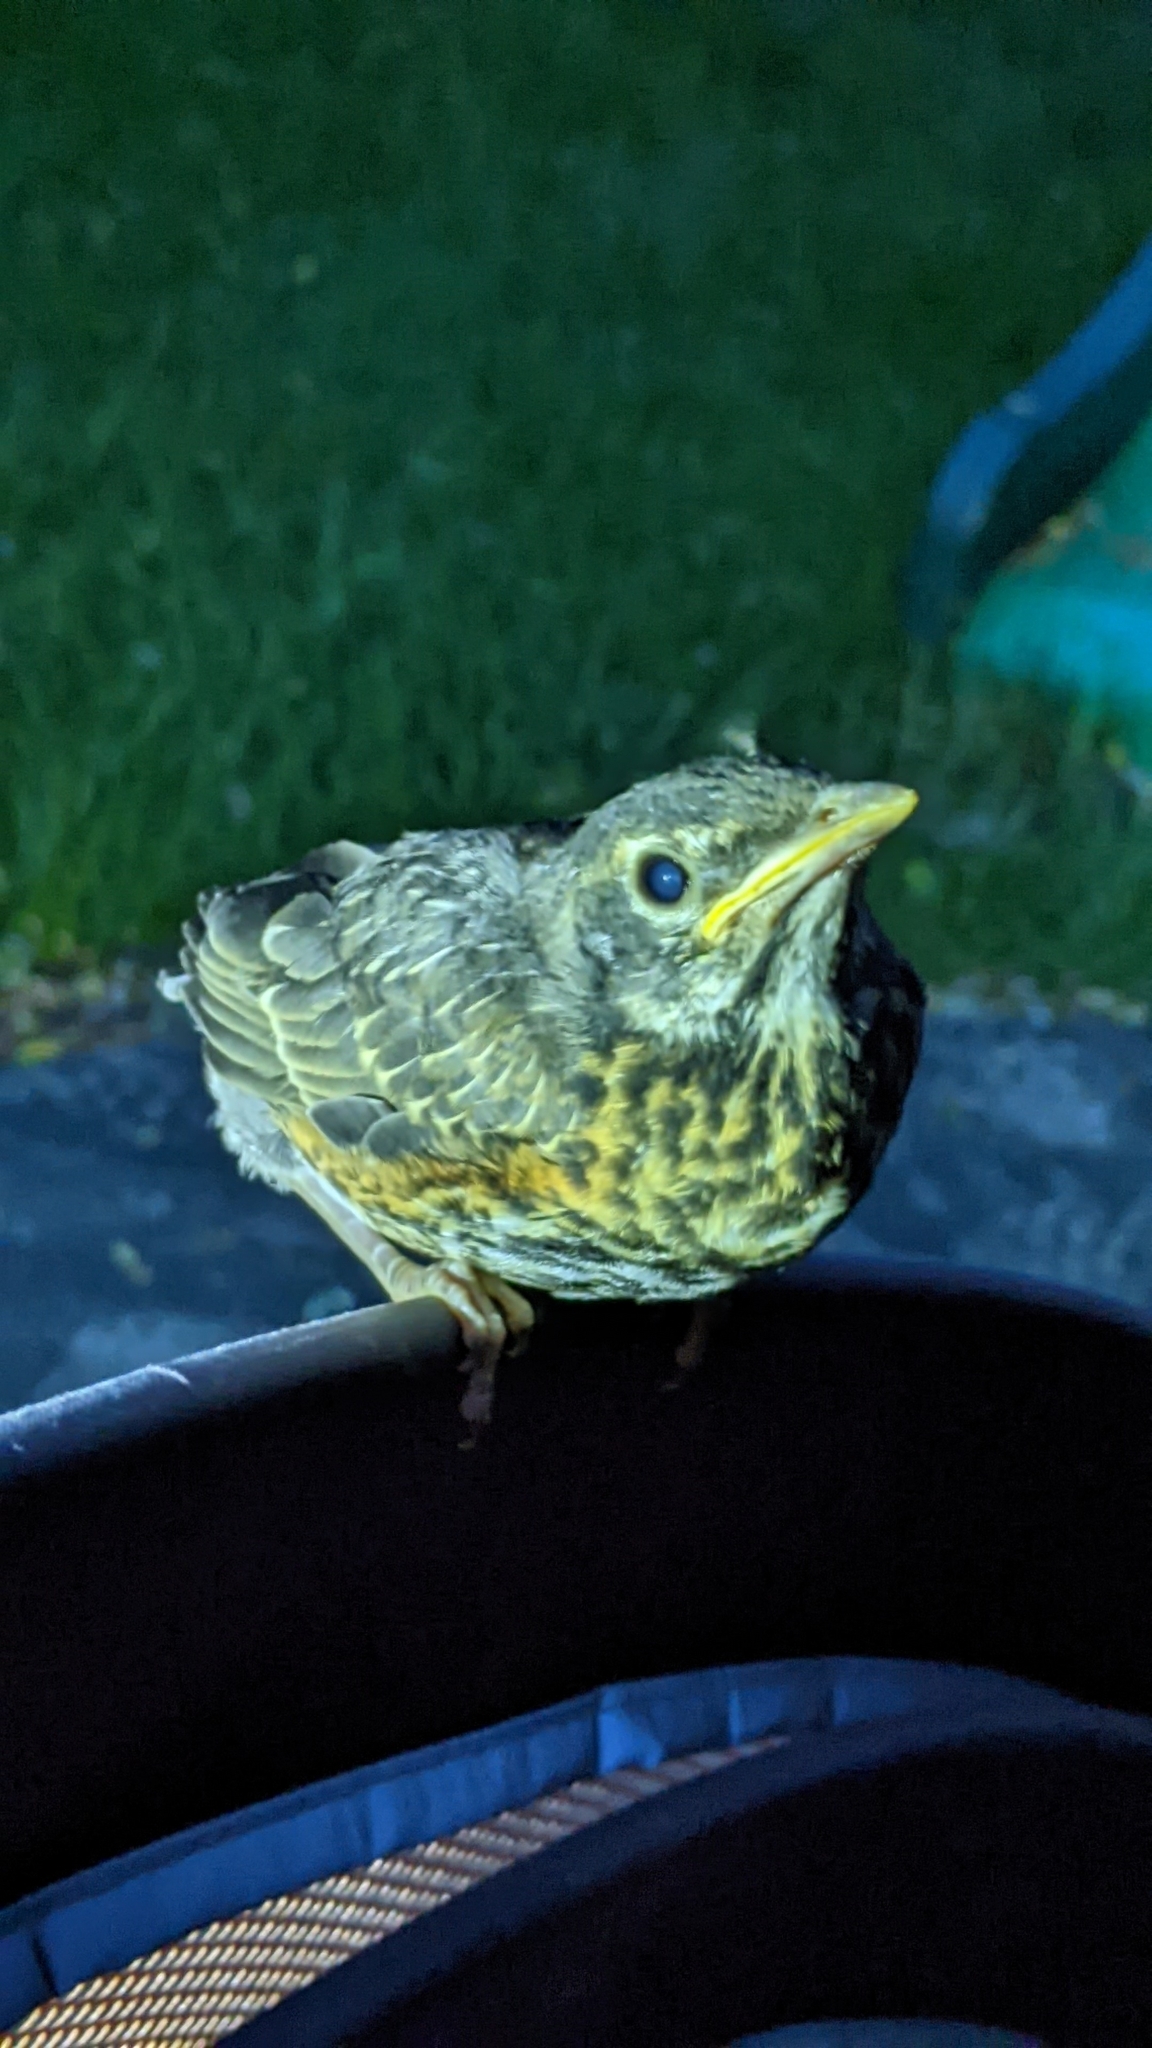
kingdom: Animalia
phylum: Chordata
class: Aves
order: Passeriformes
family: Turdidae
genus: Turdus
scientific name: Turdus migratorius
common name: American robin
